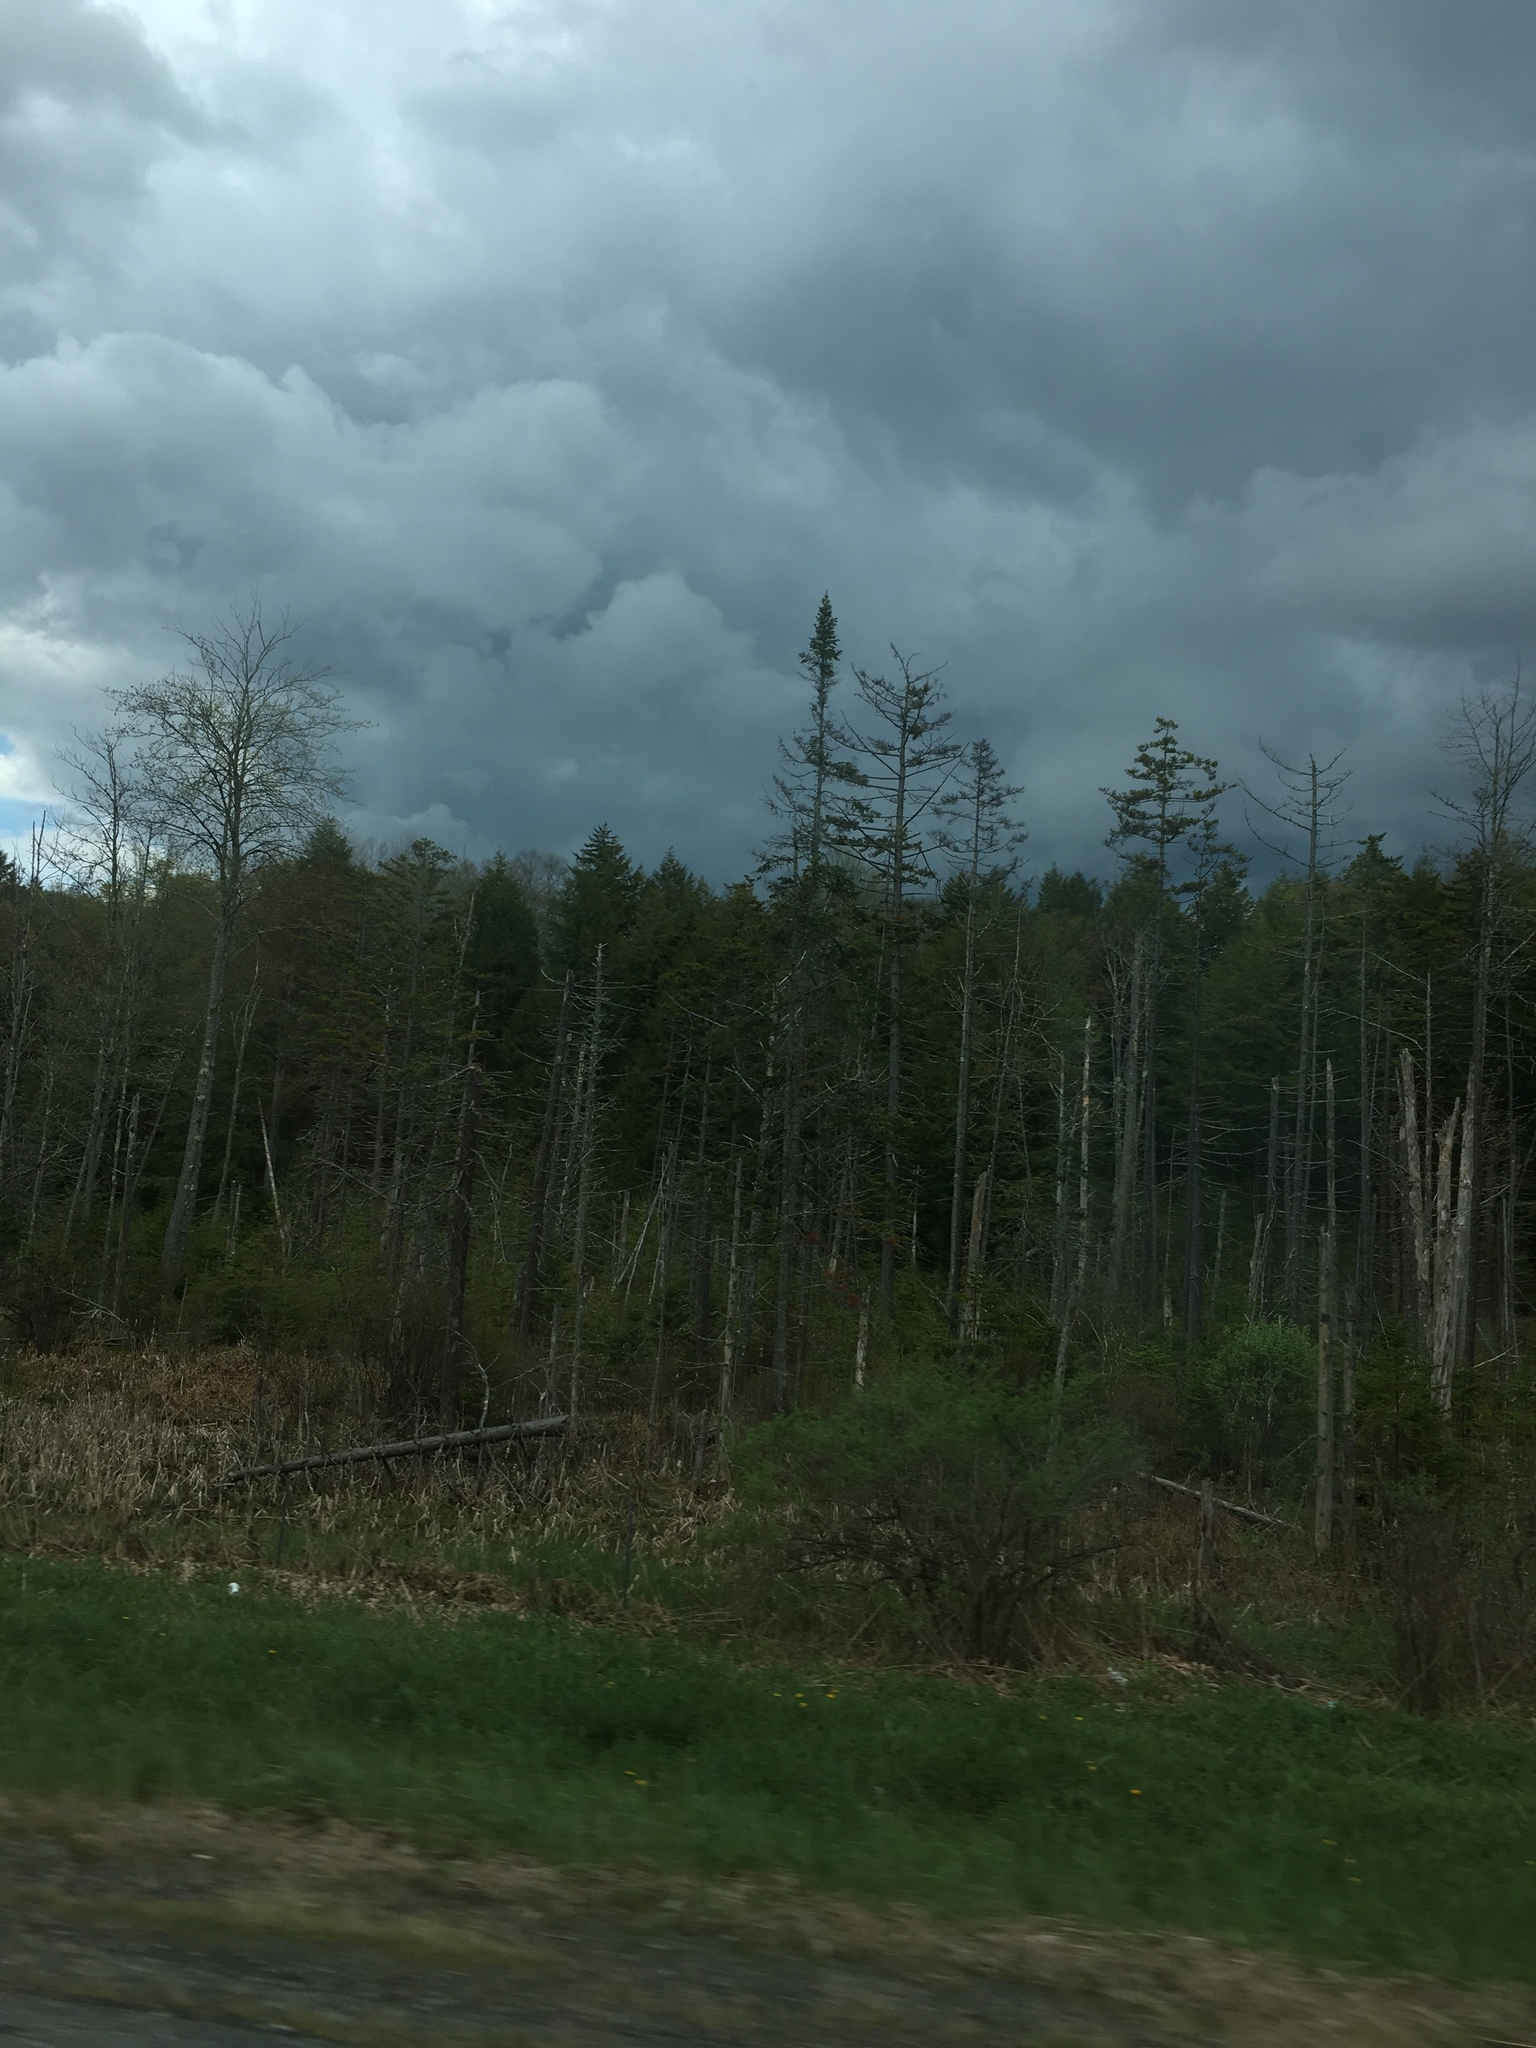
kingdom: Plantae
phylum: Tracheophyta
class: Pinopsida
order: Pinales
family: Pinaceae
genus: Abies
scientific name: Abies balsamea
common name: Balsam fir
